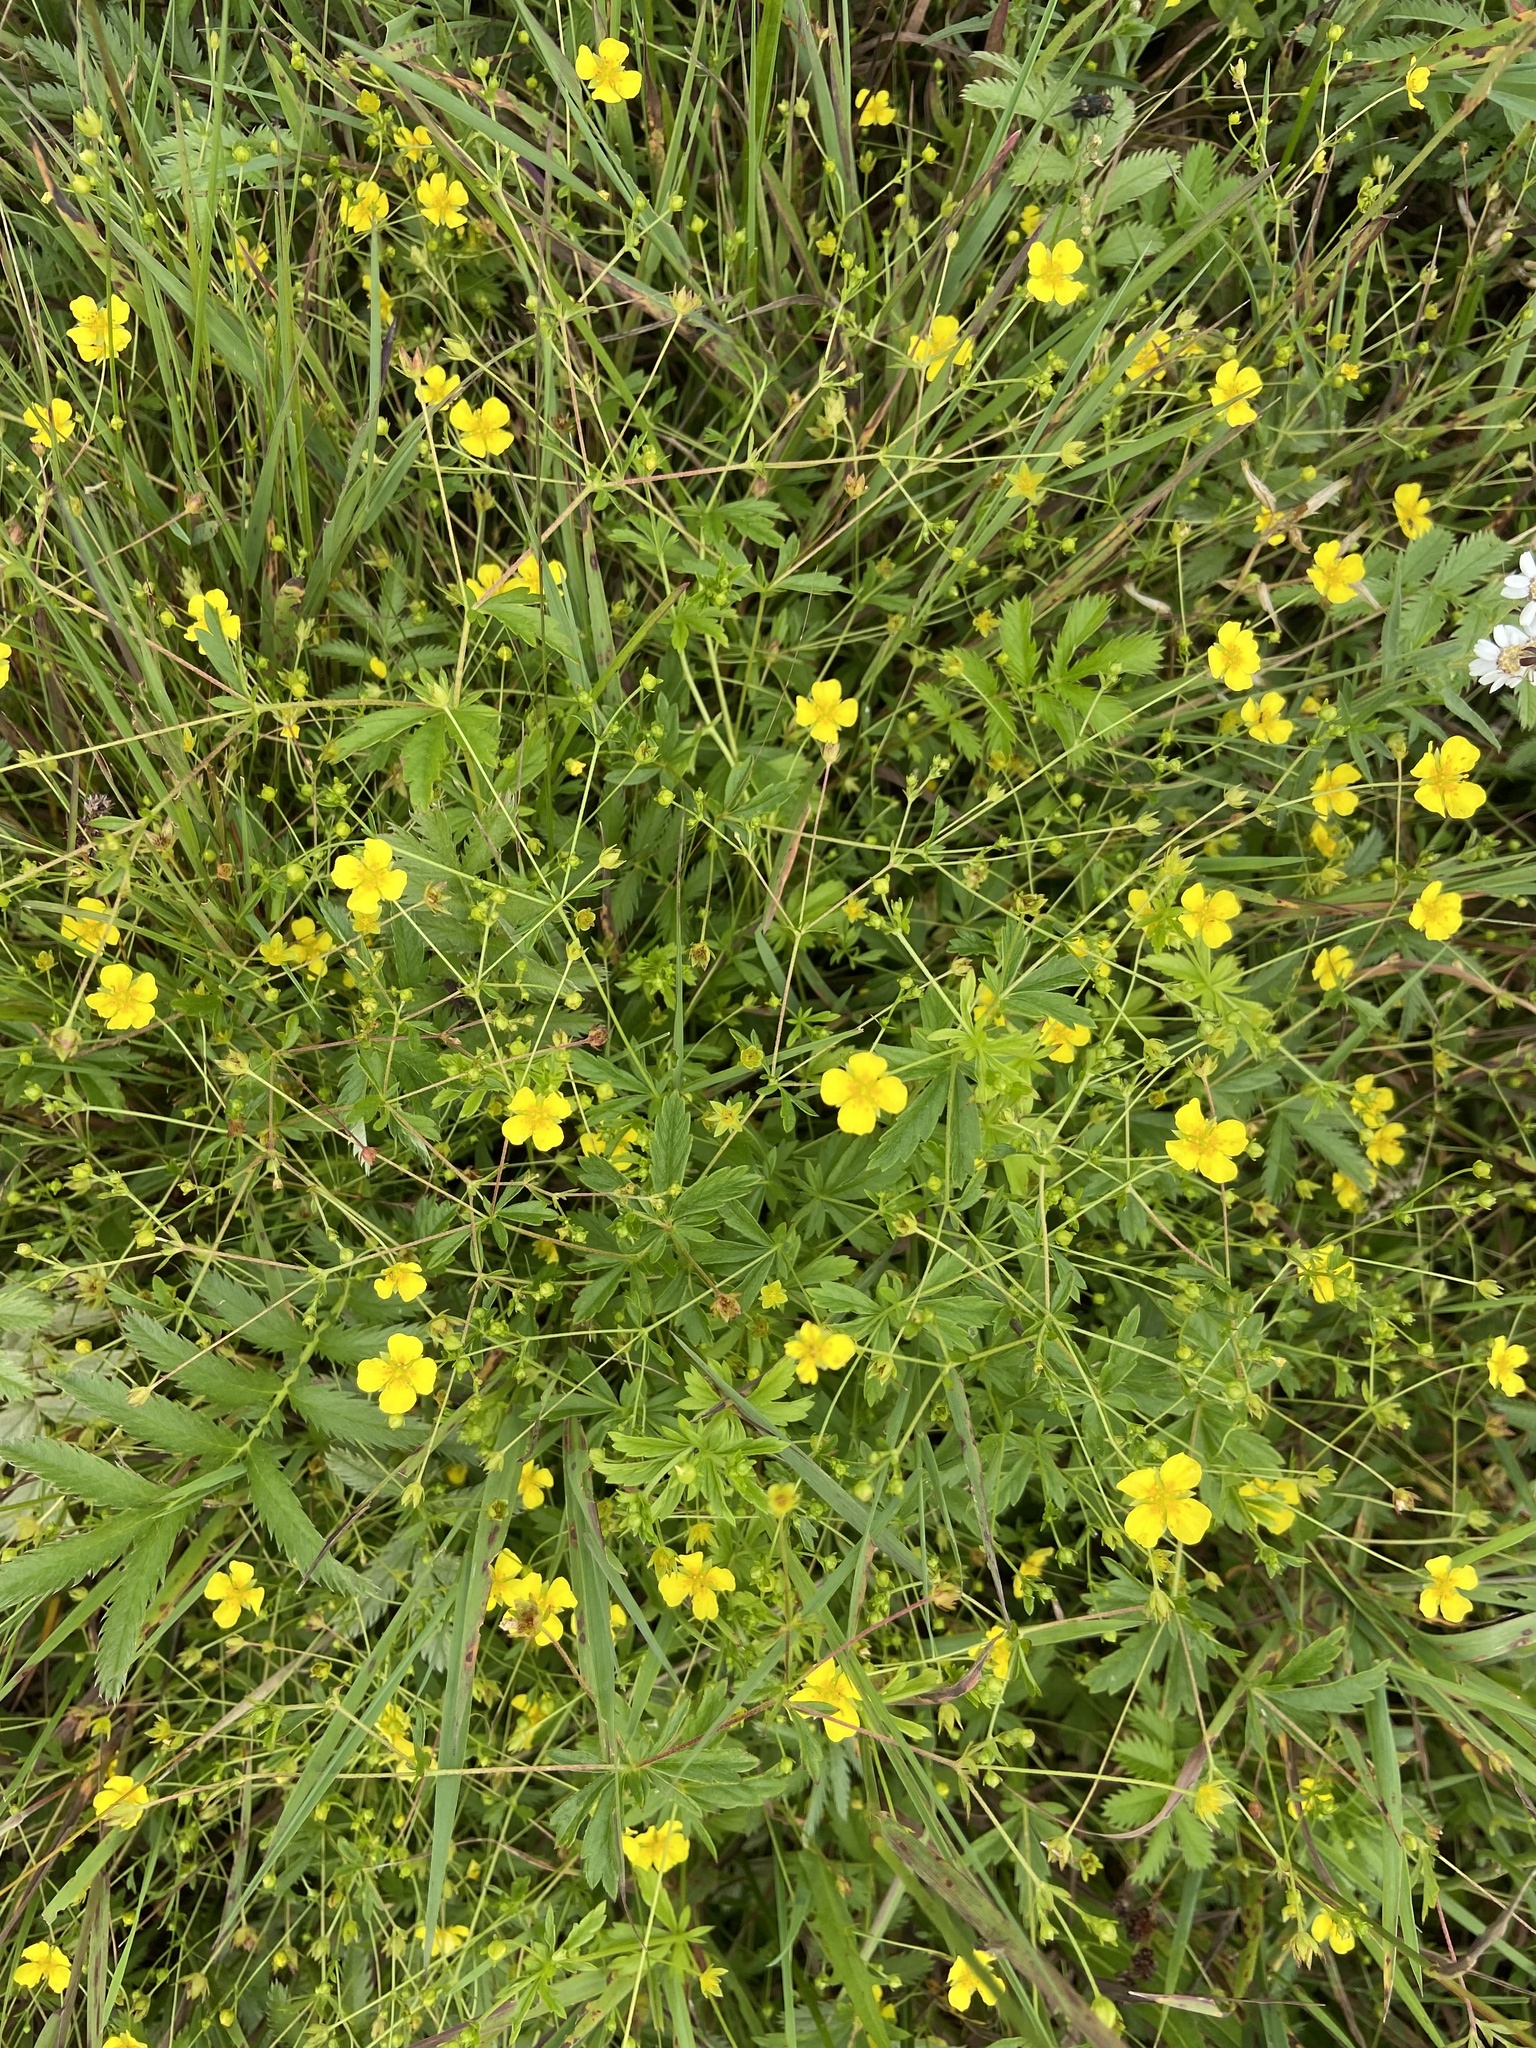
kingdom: Plantae
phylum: Tracheophyta
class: Magnoliopsida
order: Rosales
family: Rosaceae
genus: Potentilla
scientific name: Potentilla erecta
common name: Tormentil
